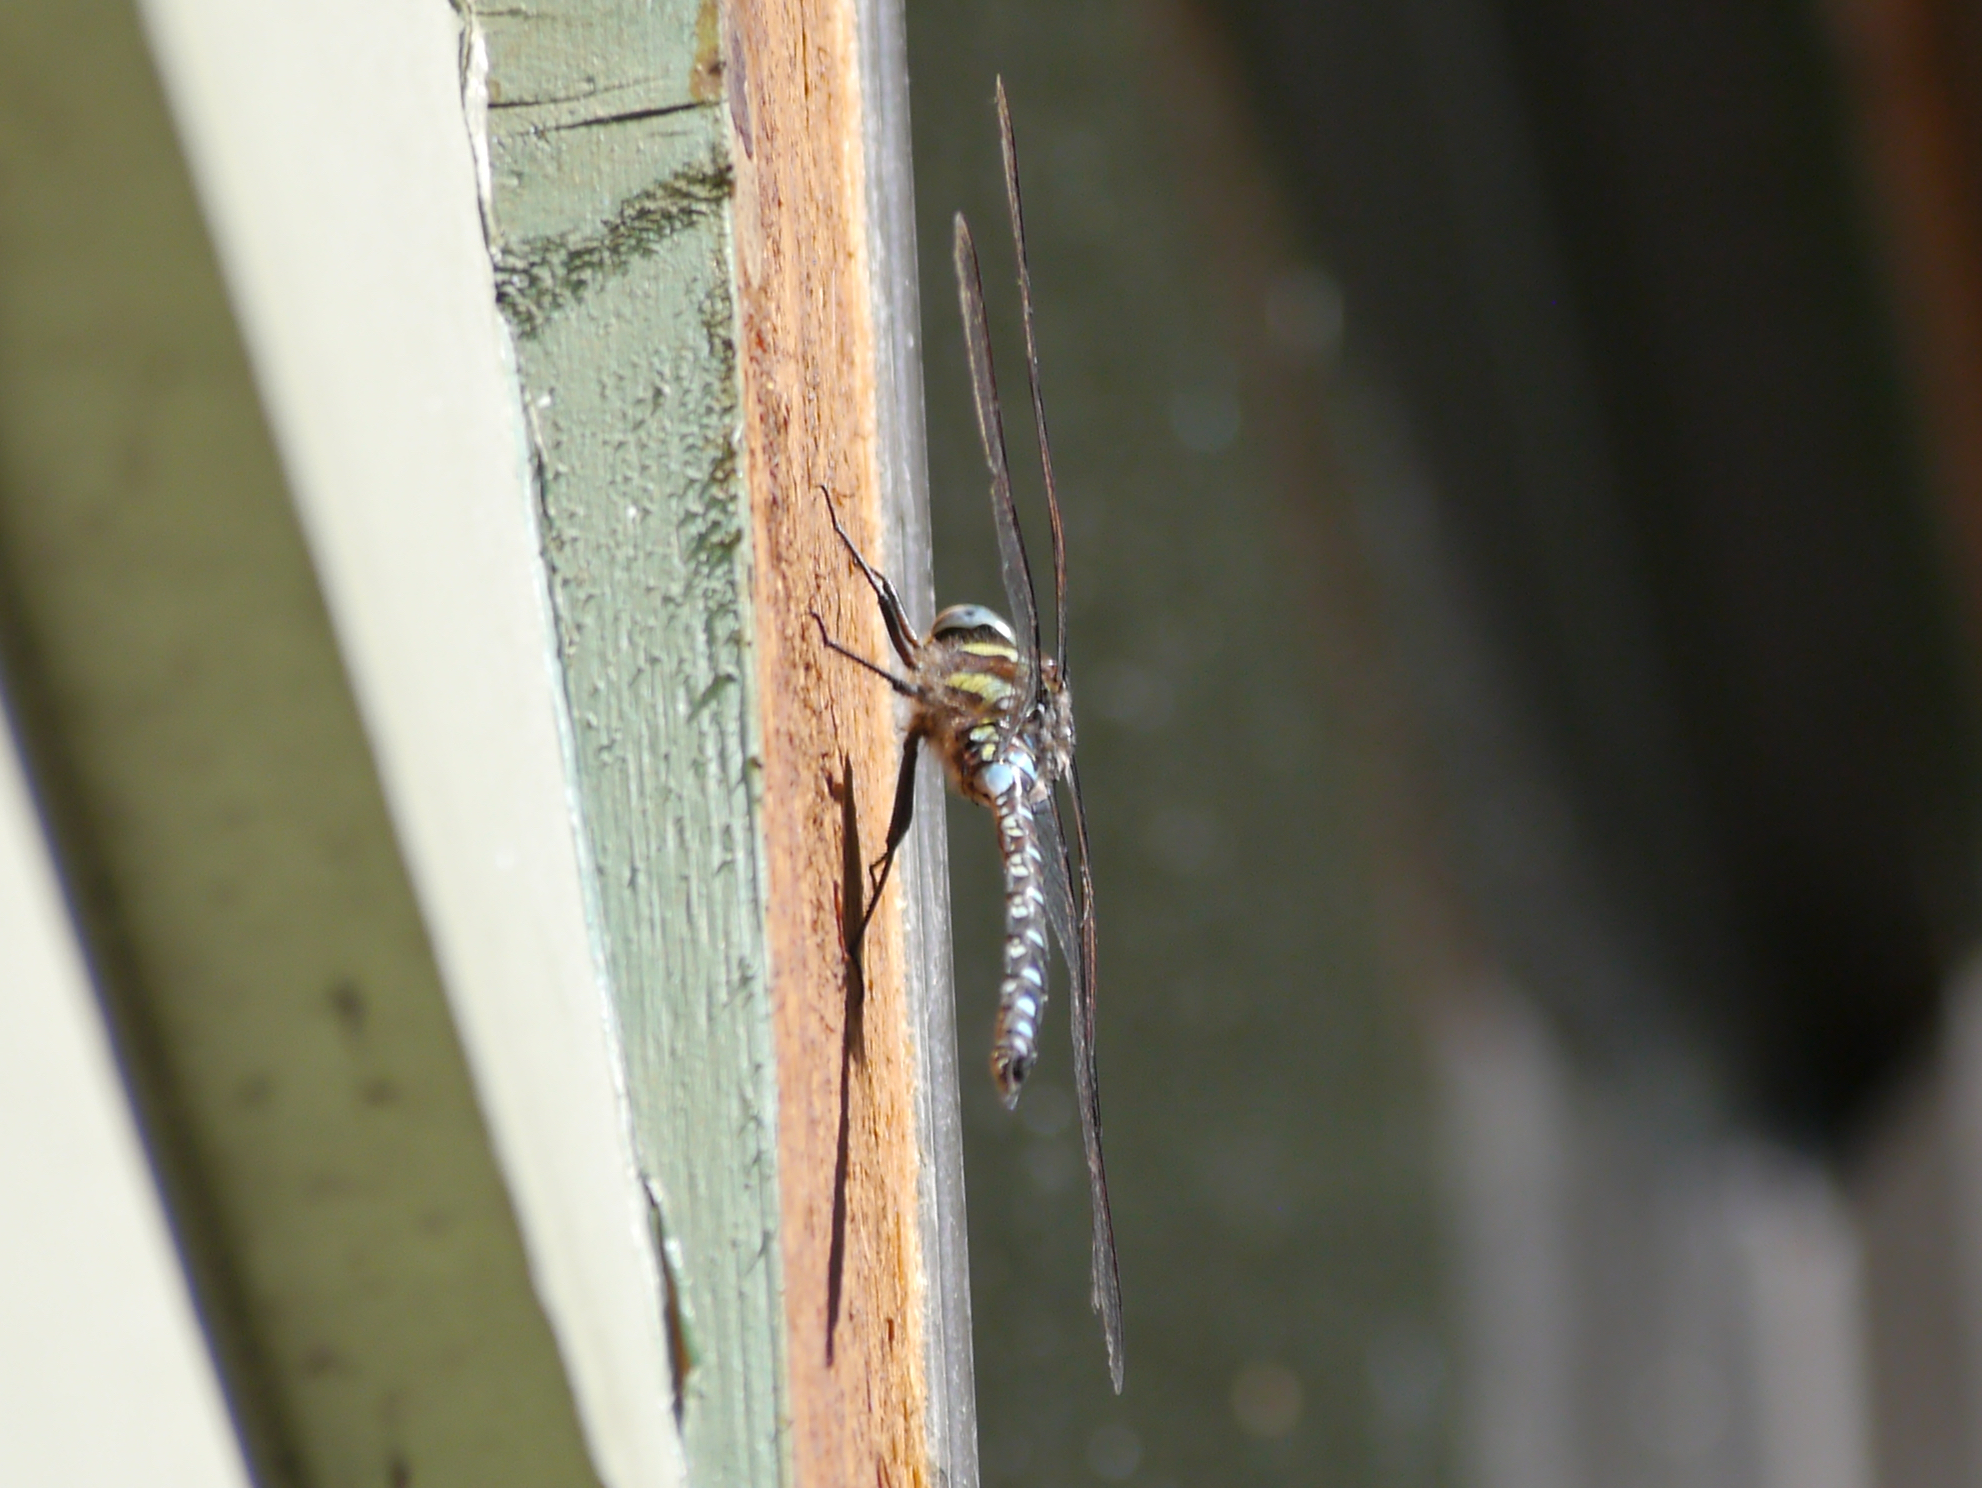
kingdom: Animalia
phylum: Arthropoda
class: Insecta
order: Odonata
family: Aeshnidae
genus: Aeshna
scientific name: Aeshna juncea
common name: Moorland hawker
